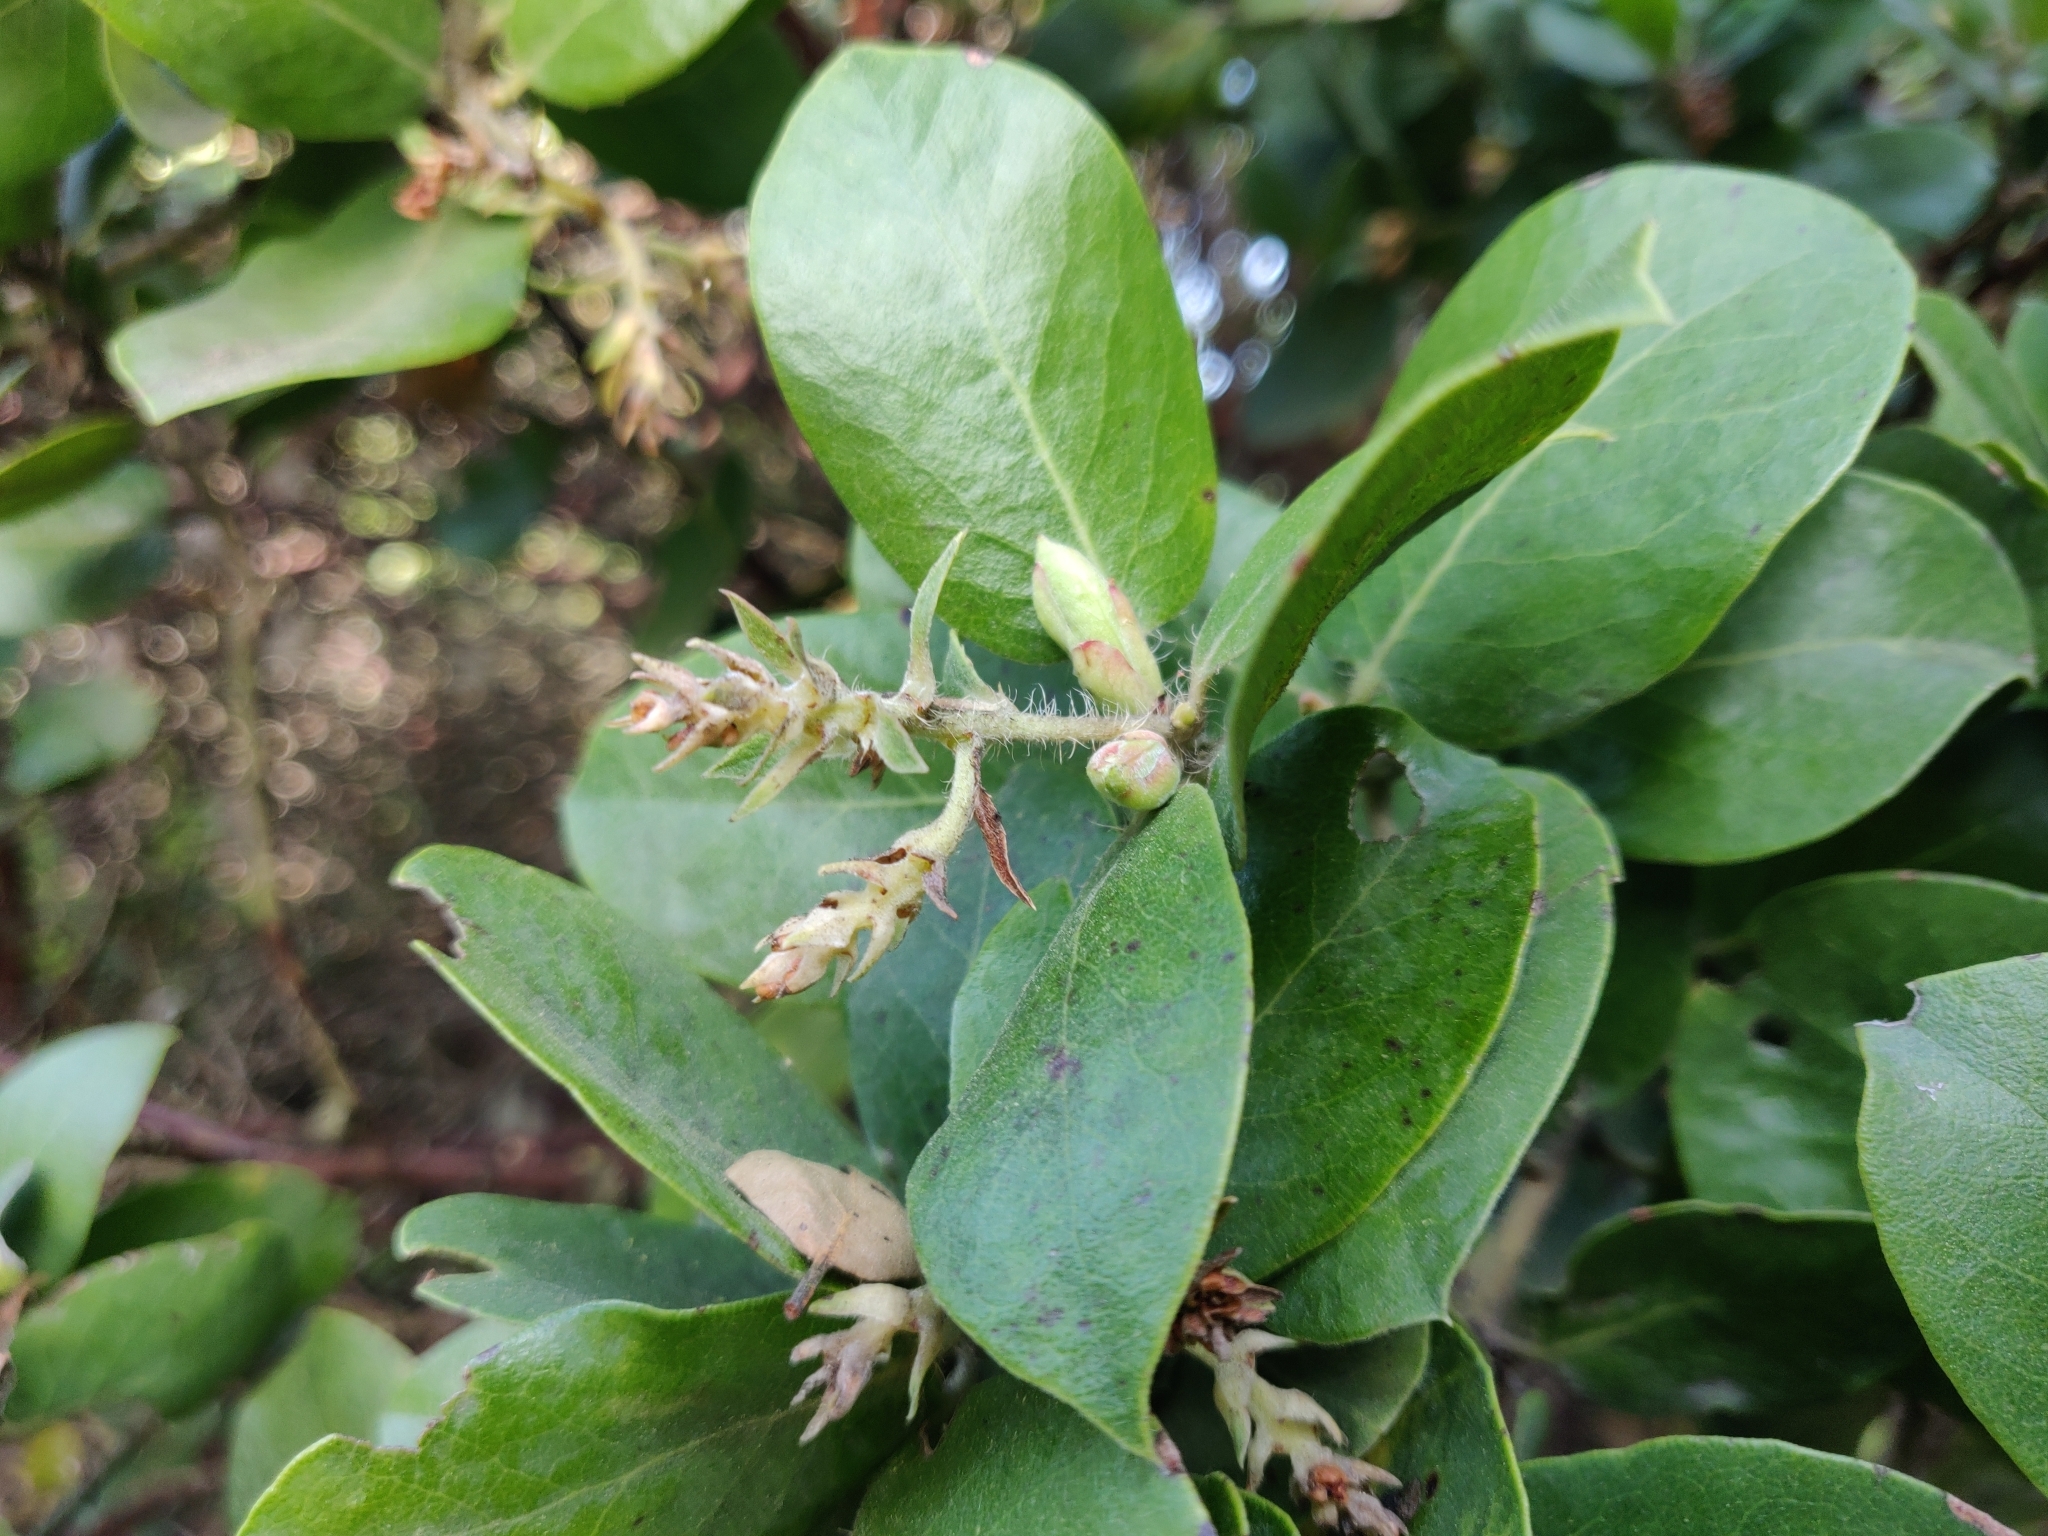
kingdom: Plantae
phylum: Tracheophyta
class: Magnoliopsida
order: Ericales
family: Ericaceae
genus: Arctostaphylos
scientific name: Arctostaphylos crustacea
